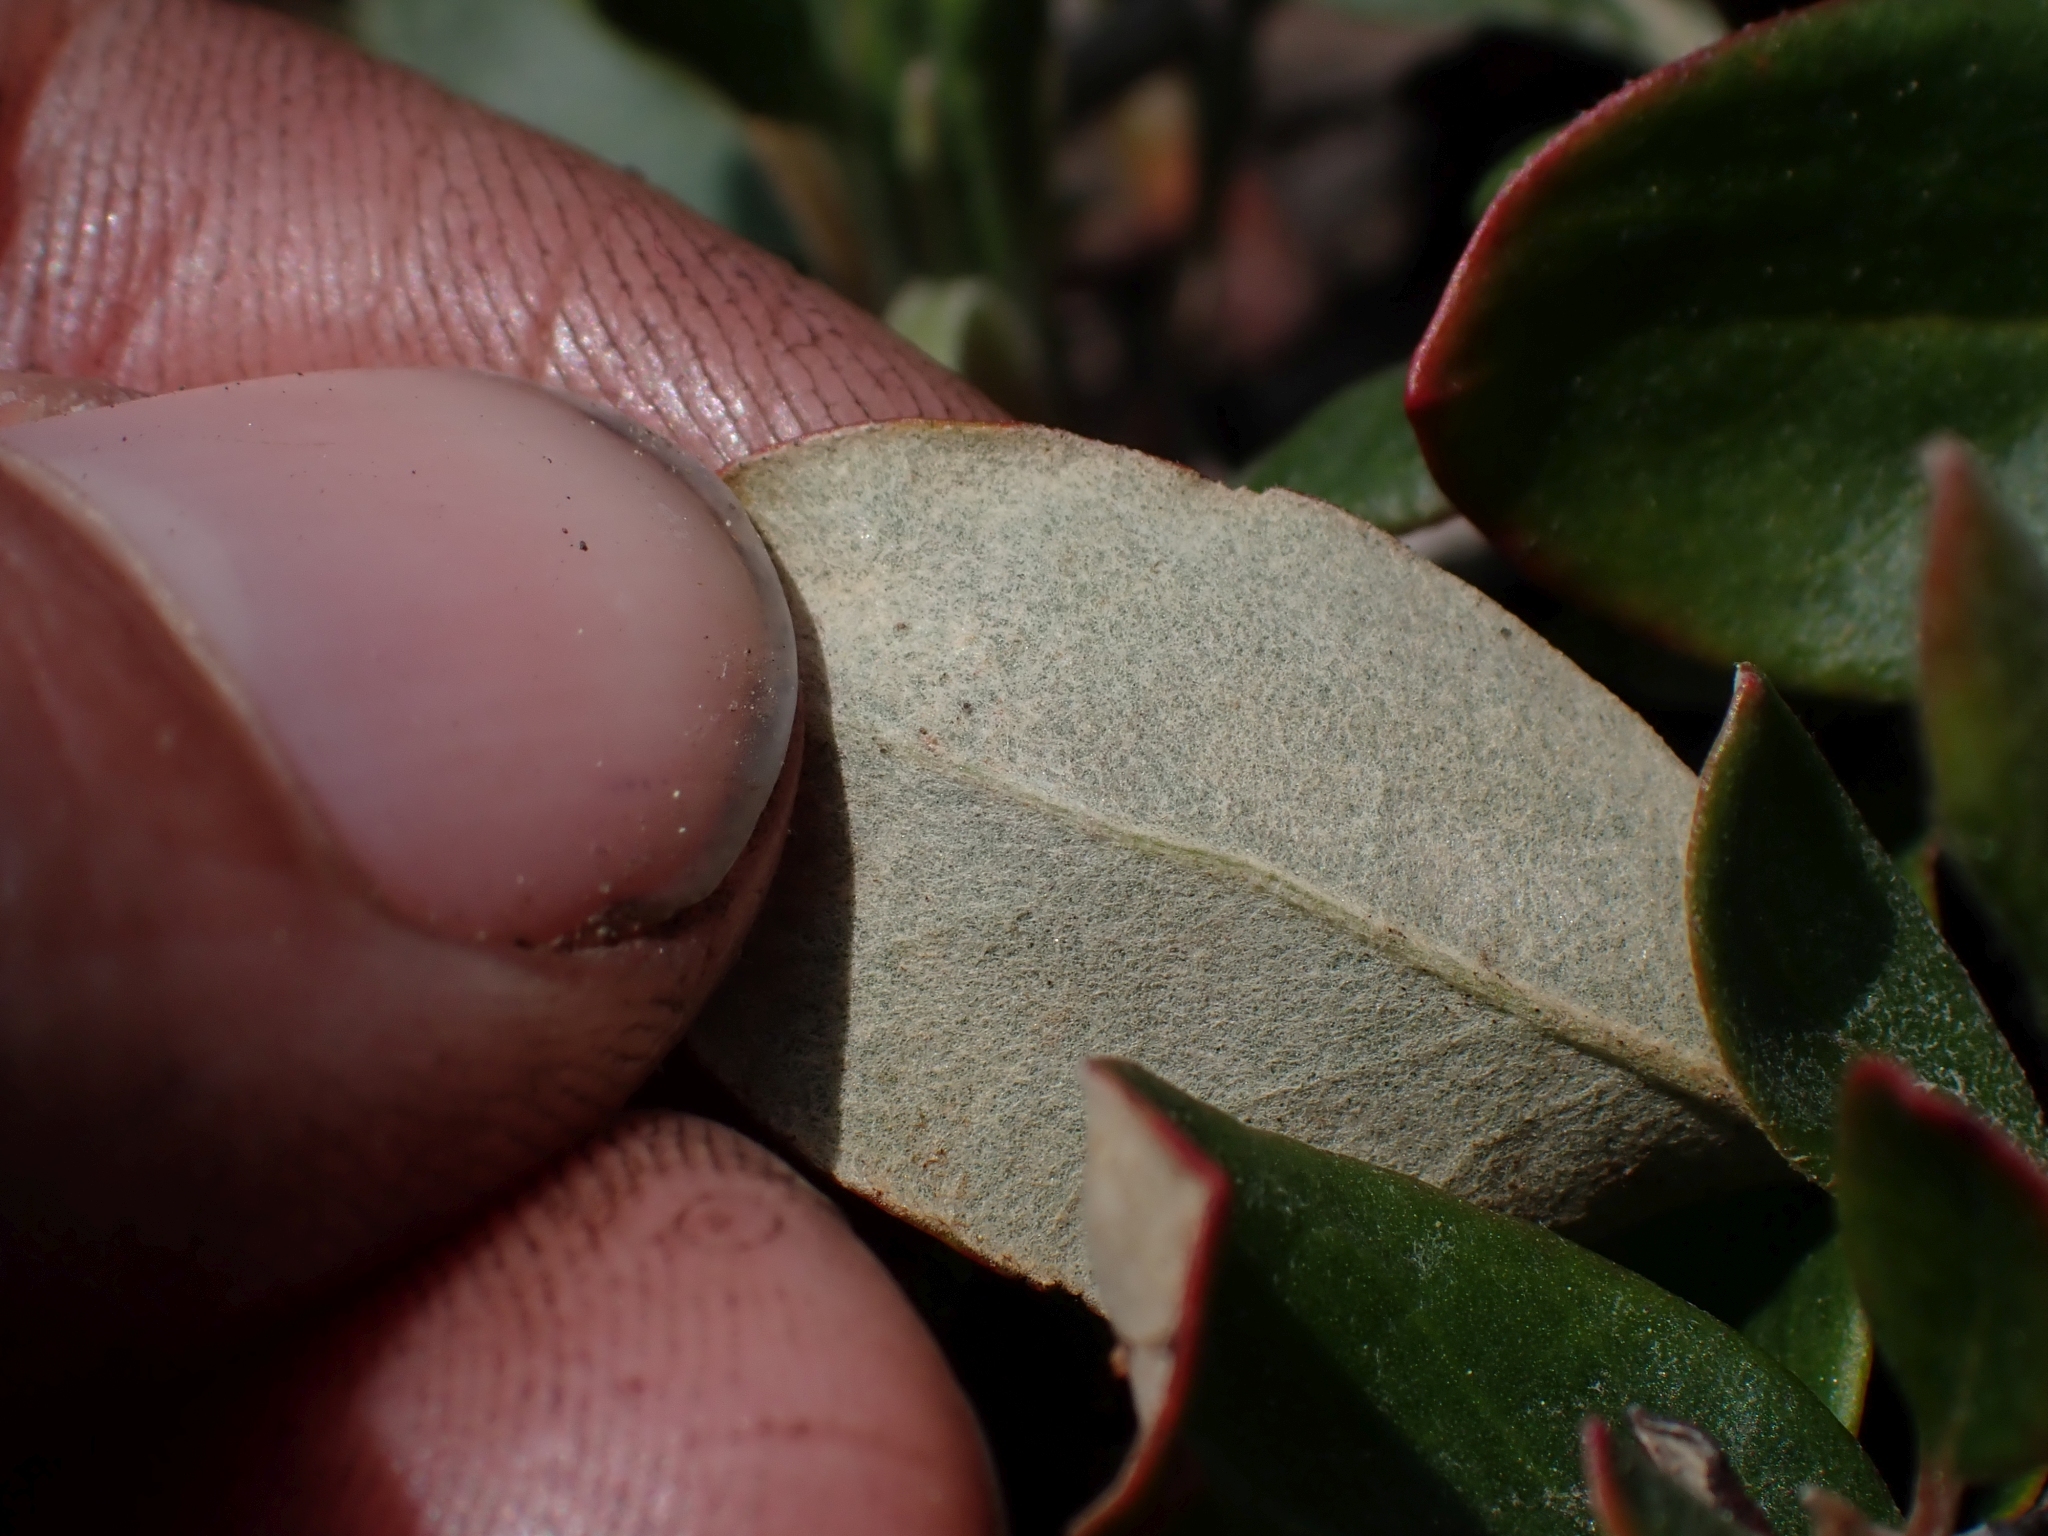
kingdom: Plantae
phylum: Tracheophyta
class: Magnoliopsida
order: Caryophyllales
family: Polygonaceae
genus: Eriogonum
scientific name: Eriogonum umbellatum
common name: Sulfur-buckwheat
